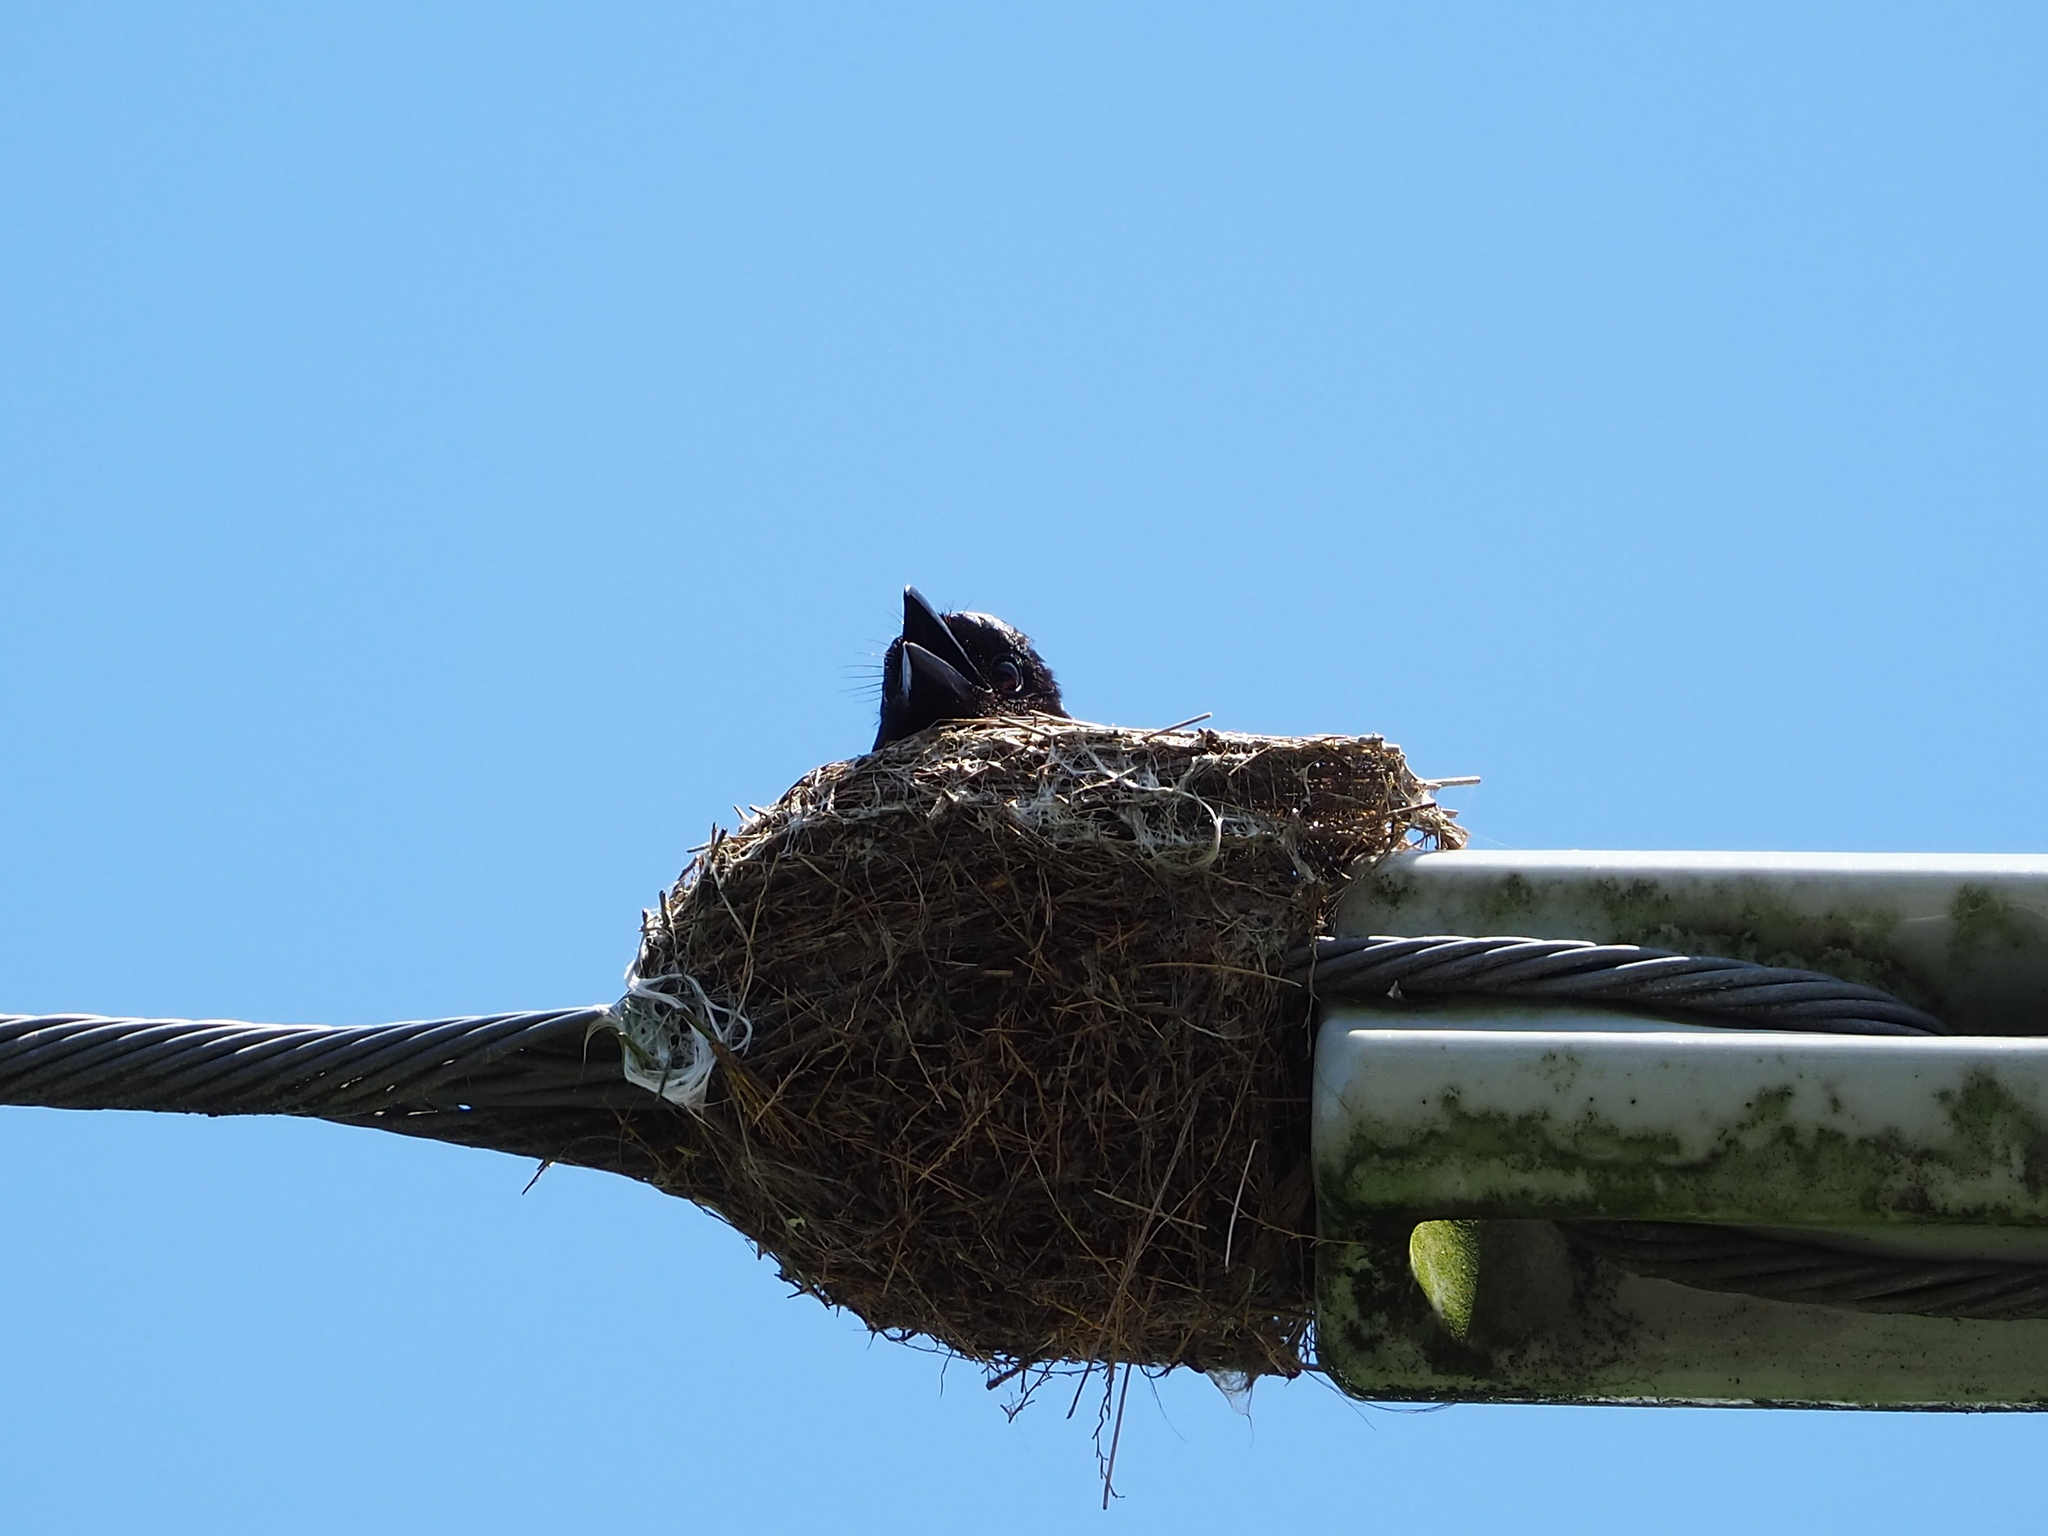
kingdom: Animalia
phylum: Chordata
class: Aves
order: Passeriformes
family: Dicruridae
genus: Dicrurus
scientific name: Dicrurus macrocercus
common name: Black drongo
